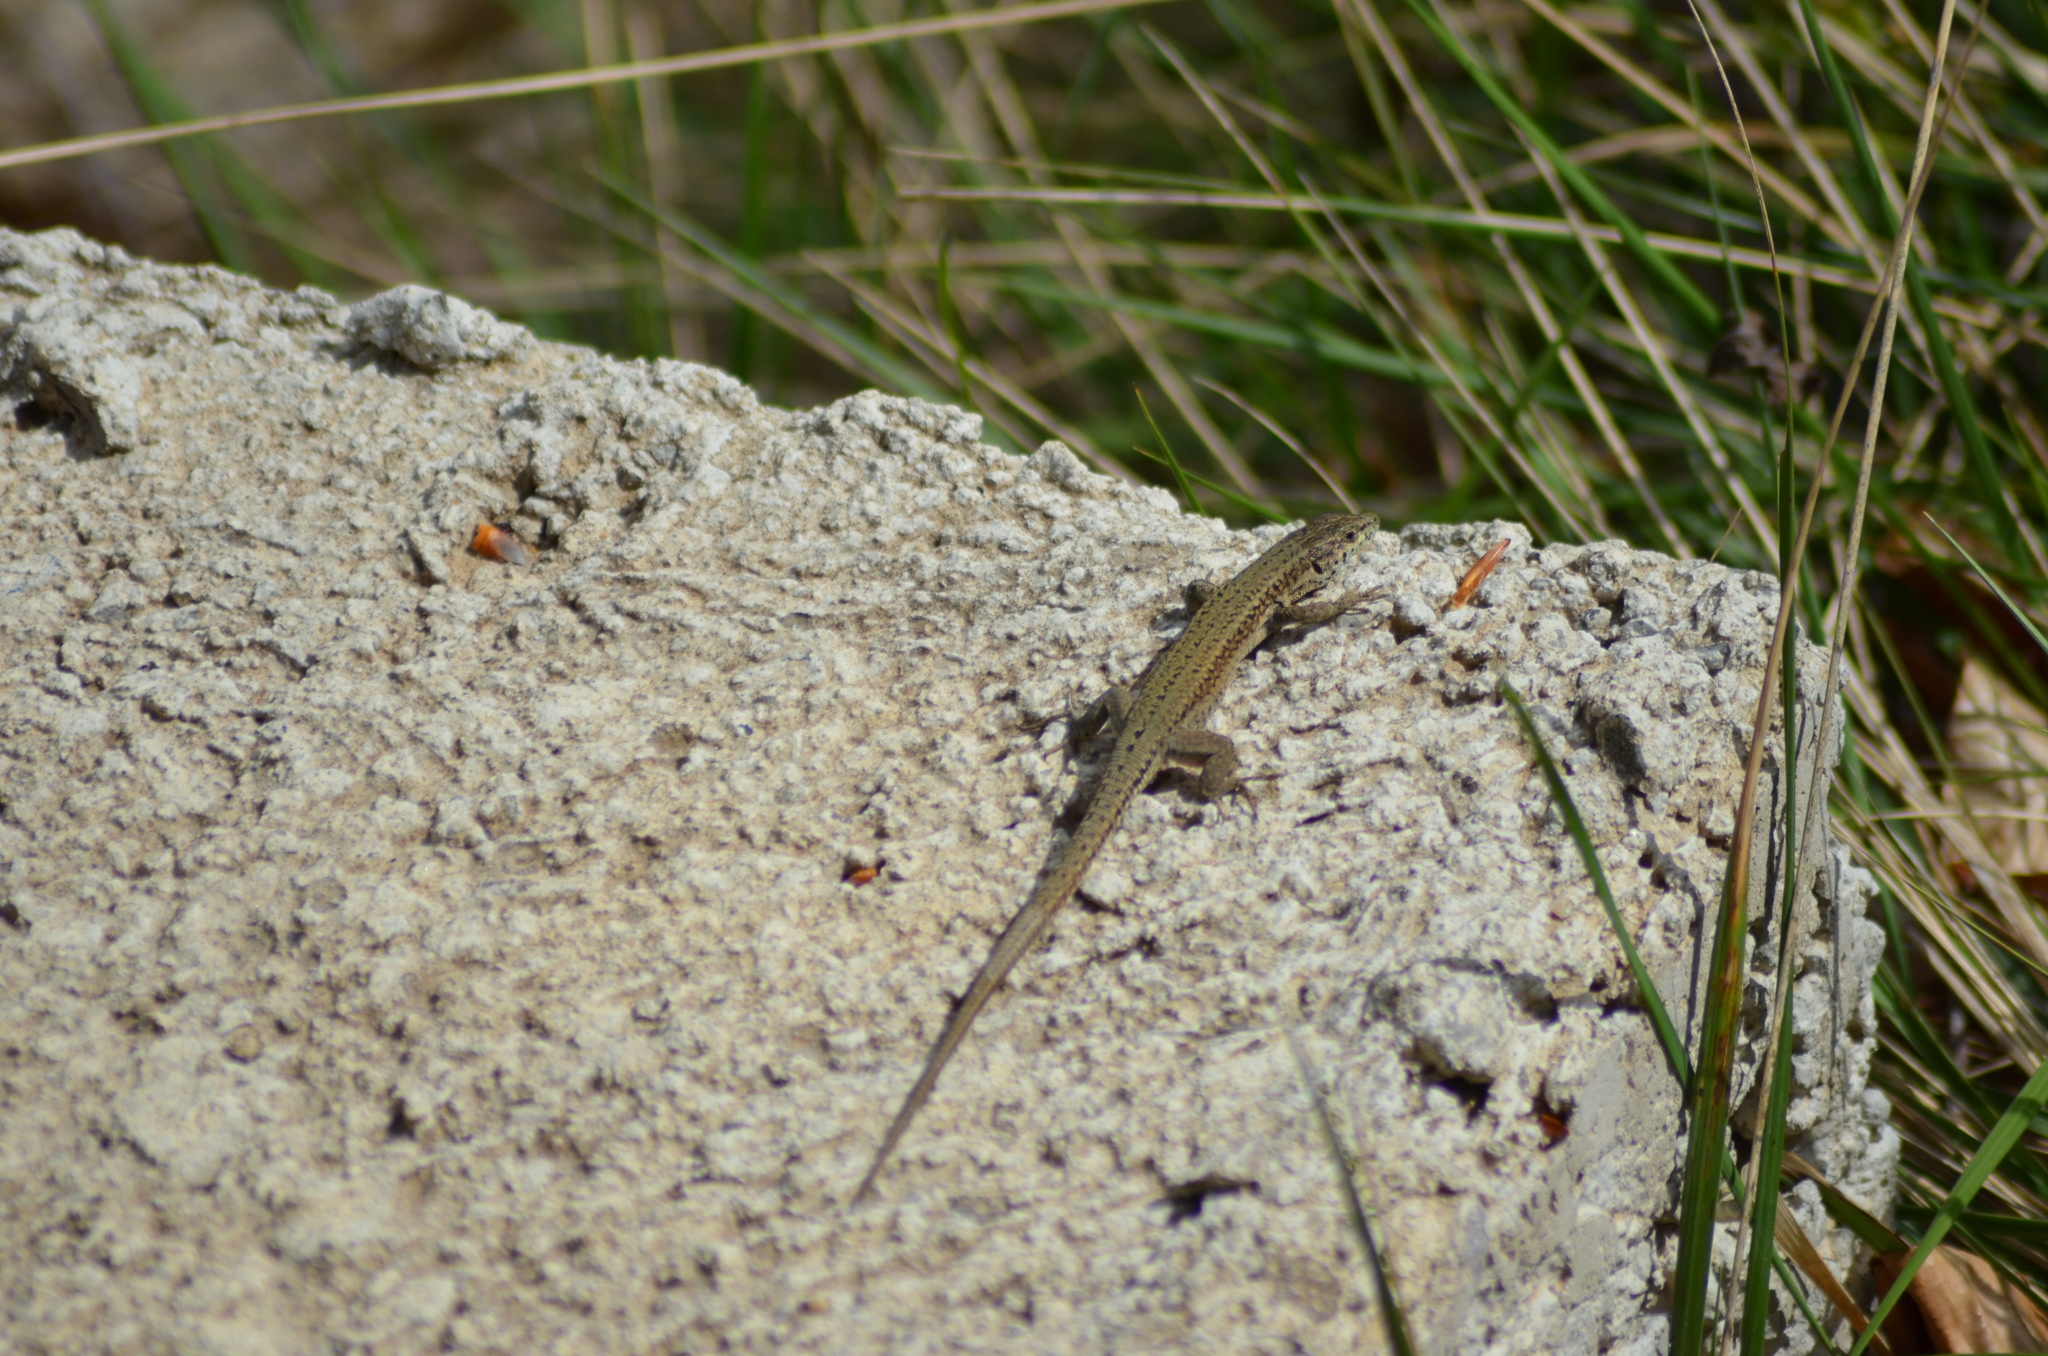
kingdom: Animalia
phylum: Chordata
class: Squamata
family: Lacertidae
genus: Podarcis
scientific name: Podarcis liolepis
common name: Catalonian wall lizard
